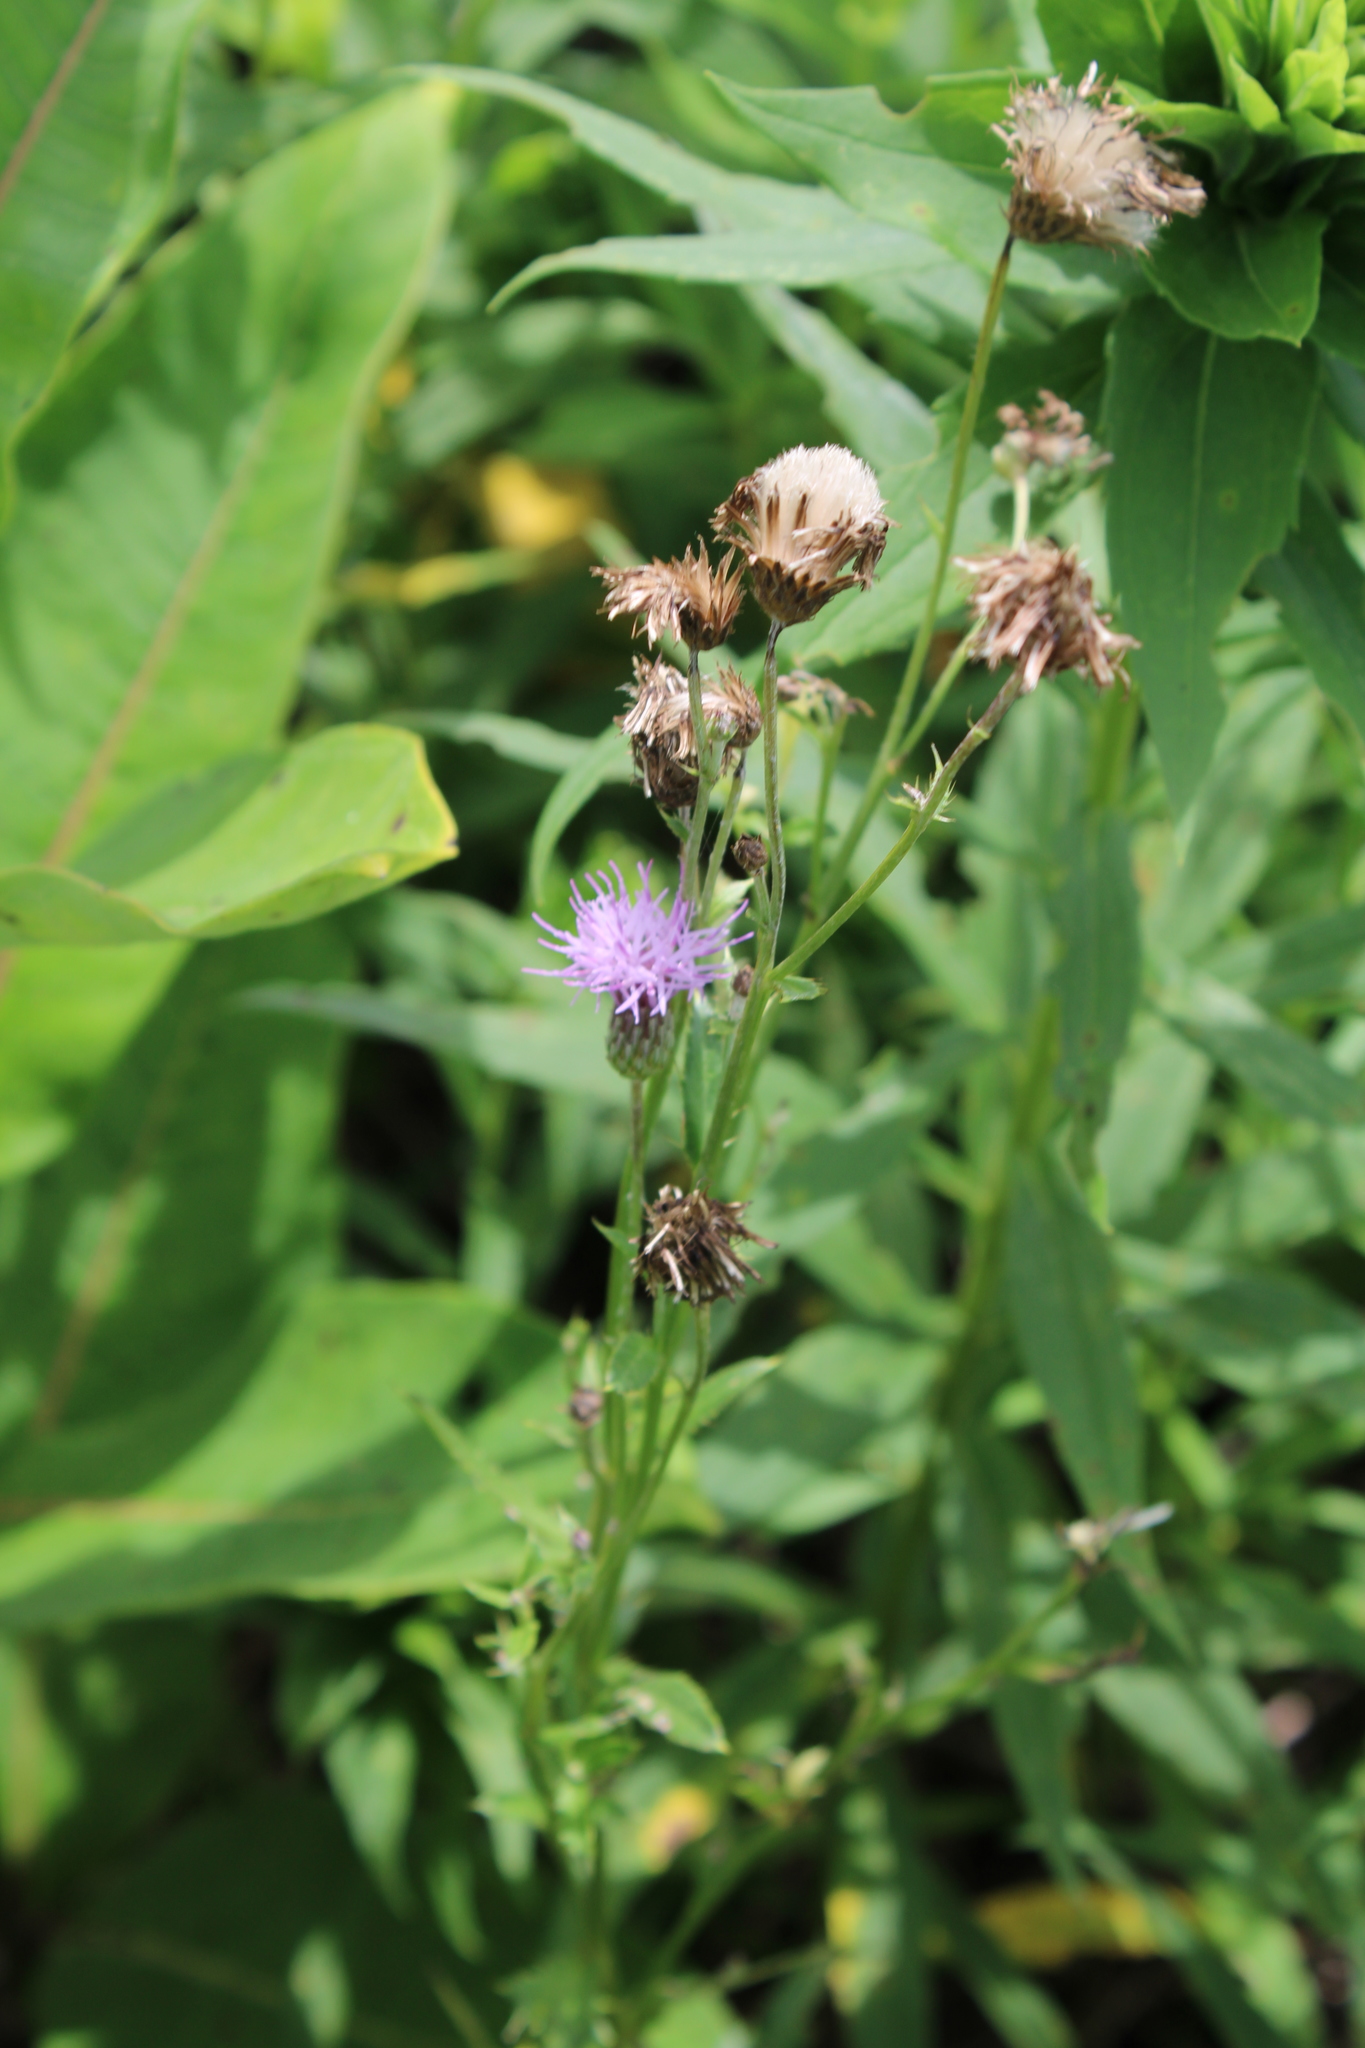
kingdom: Plantae
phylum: Tracheophyta
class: Magnoliopsida
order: Asterales
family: Asteraceae
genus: Cirsium
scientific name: Cirsium arvense
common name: Creeping thistle
